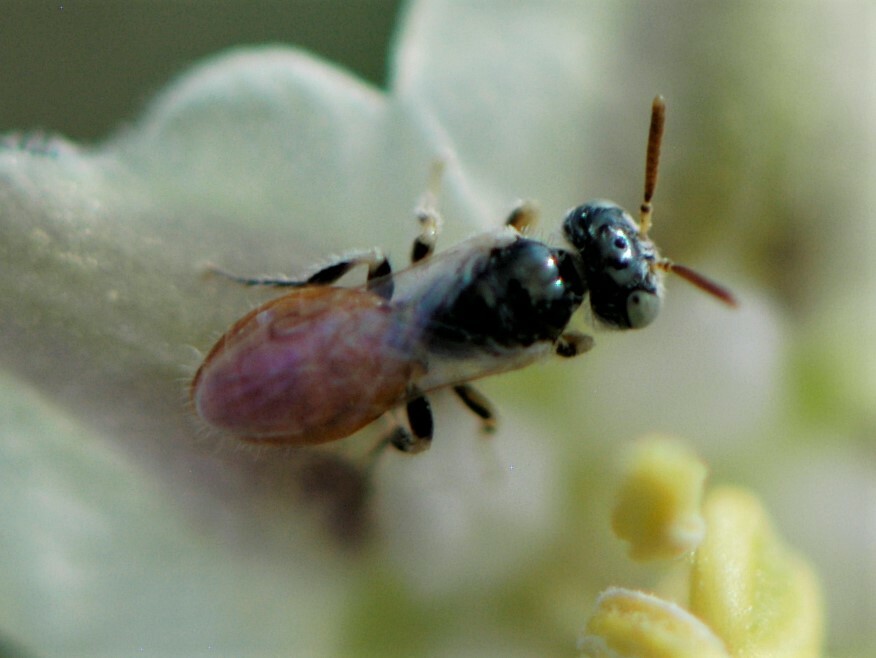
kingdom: Animalia
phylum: Arthropoda
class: Insecta
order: Hymenoptera
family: Andrenidae
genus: Perdita
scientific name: Perdita chamaesarachae
